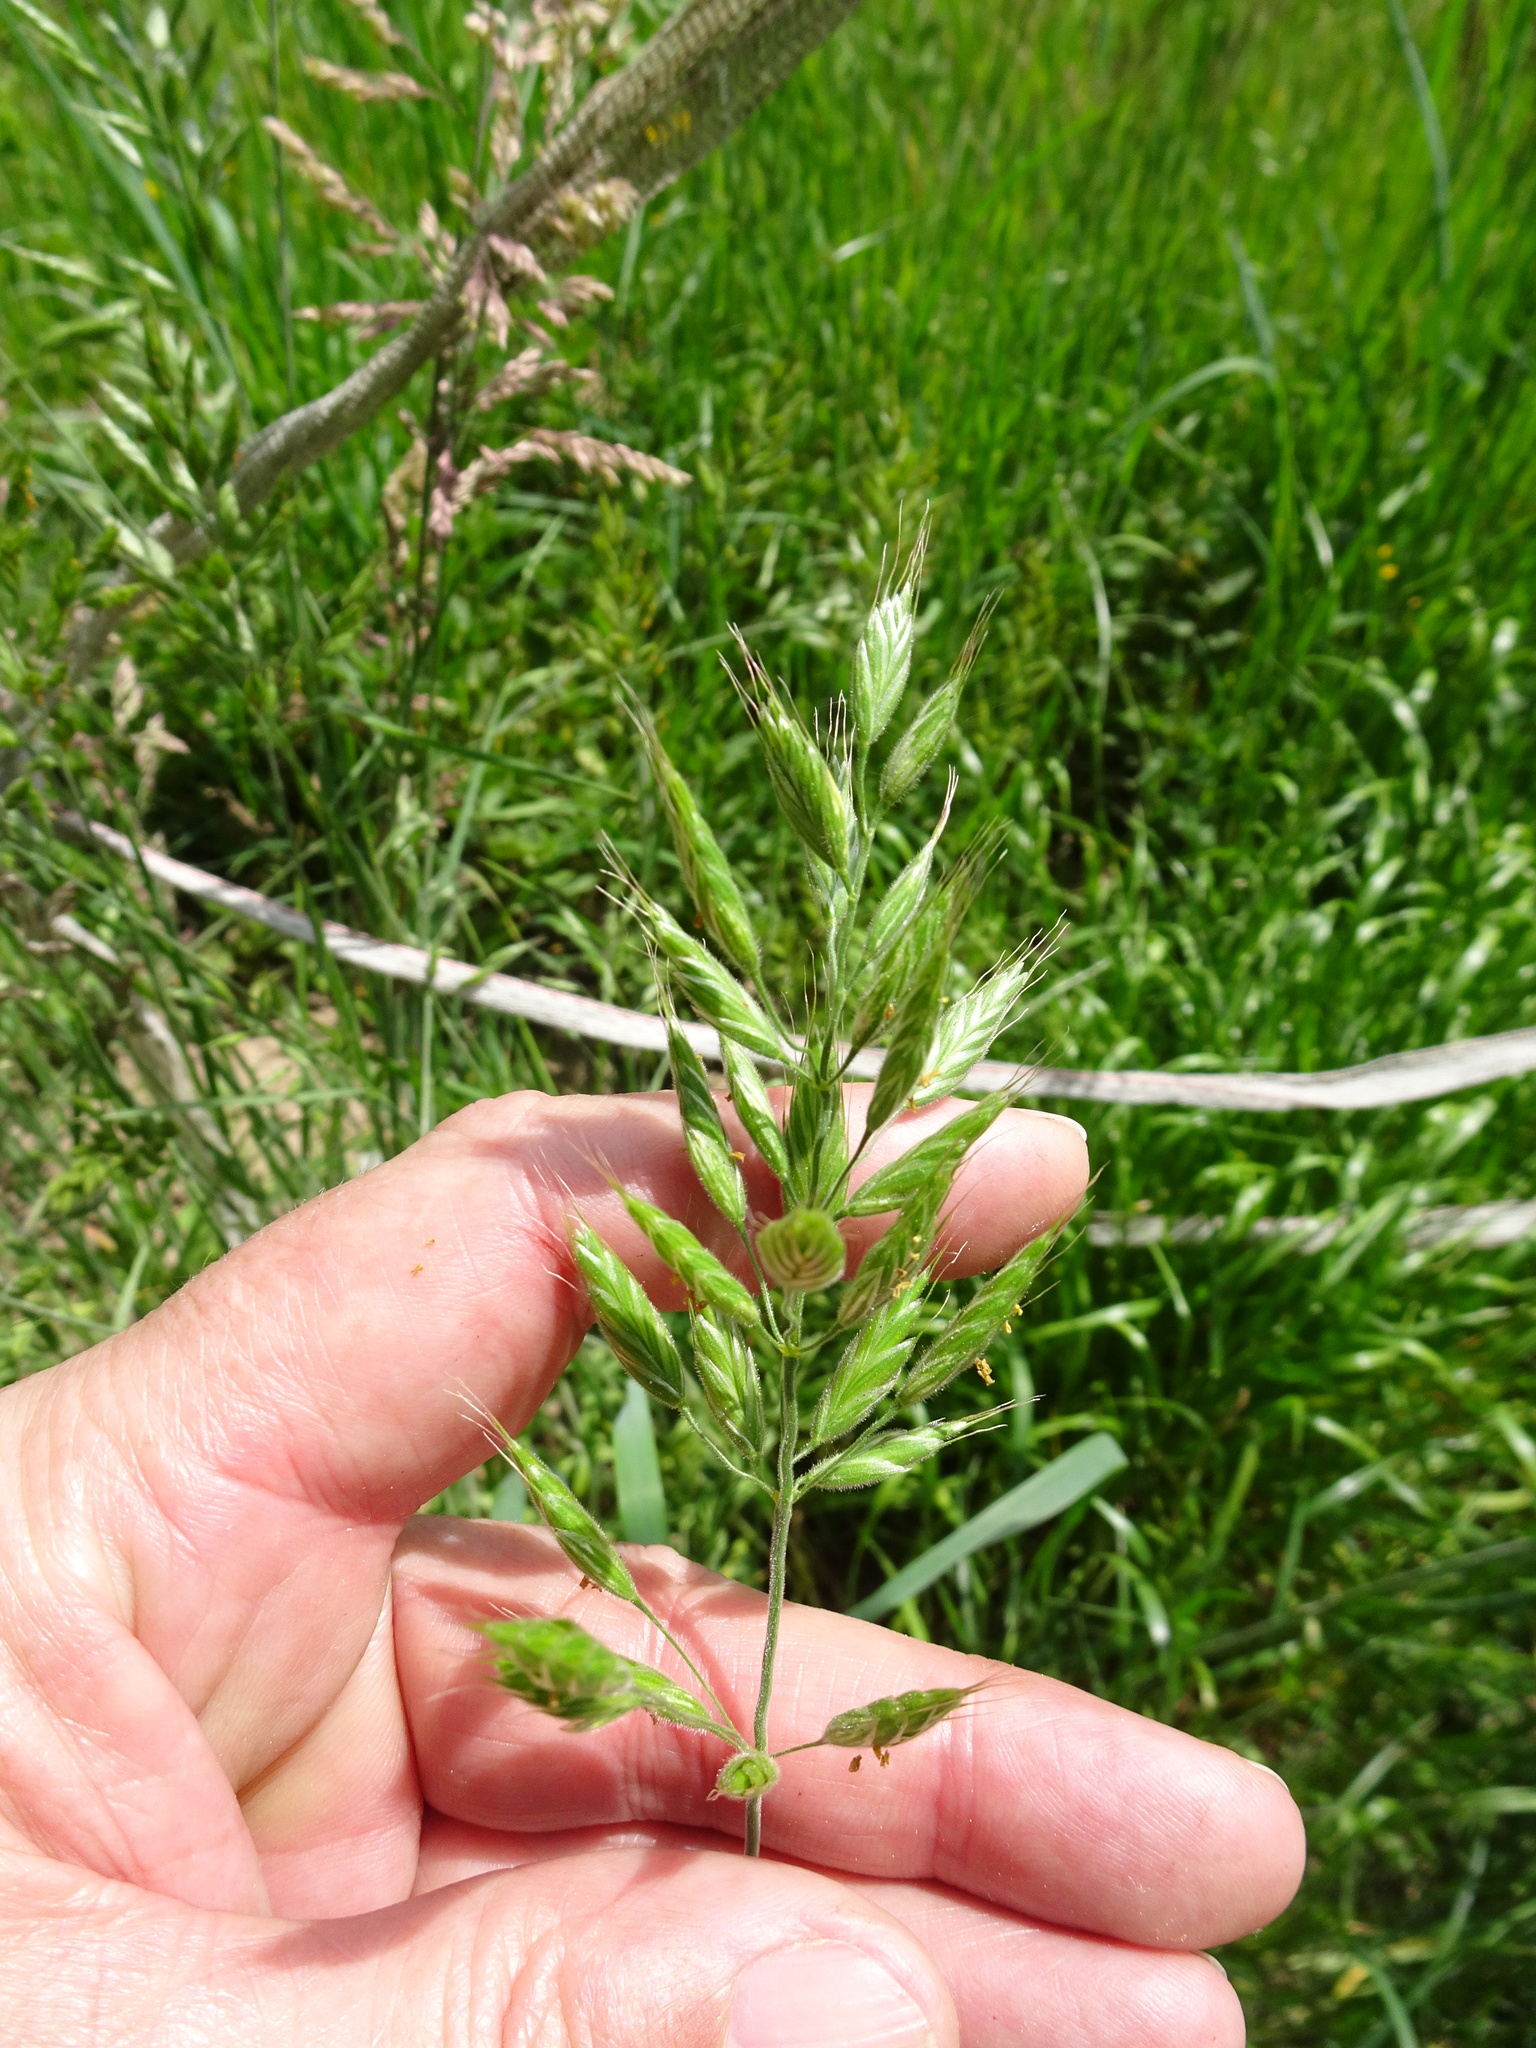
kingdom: Plantae
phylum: Tracheophyta
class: Liliopsida
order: Poales
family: Poaceae
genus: Bromus
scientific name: Bromus hordeaceus
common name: Soft brome
